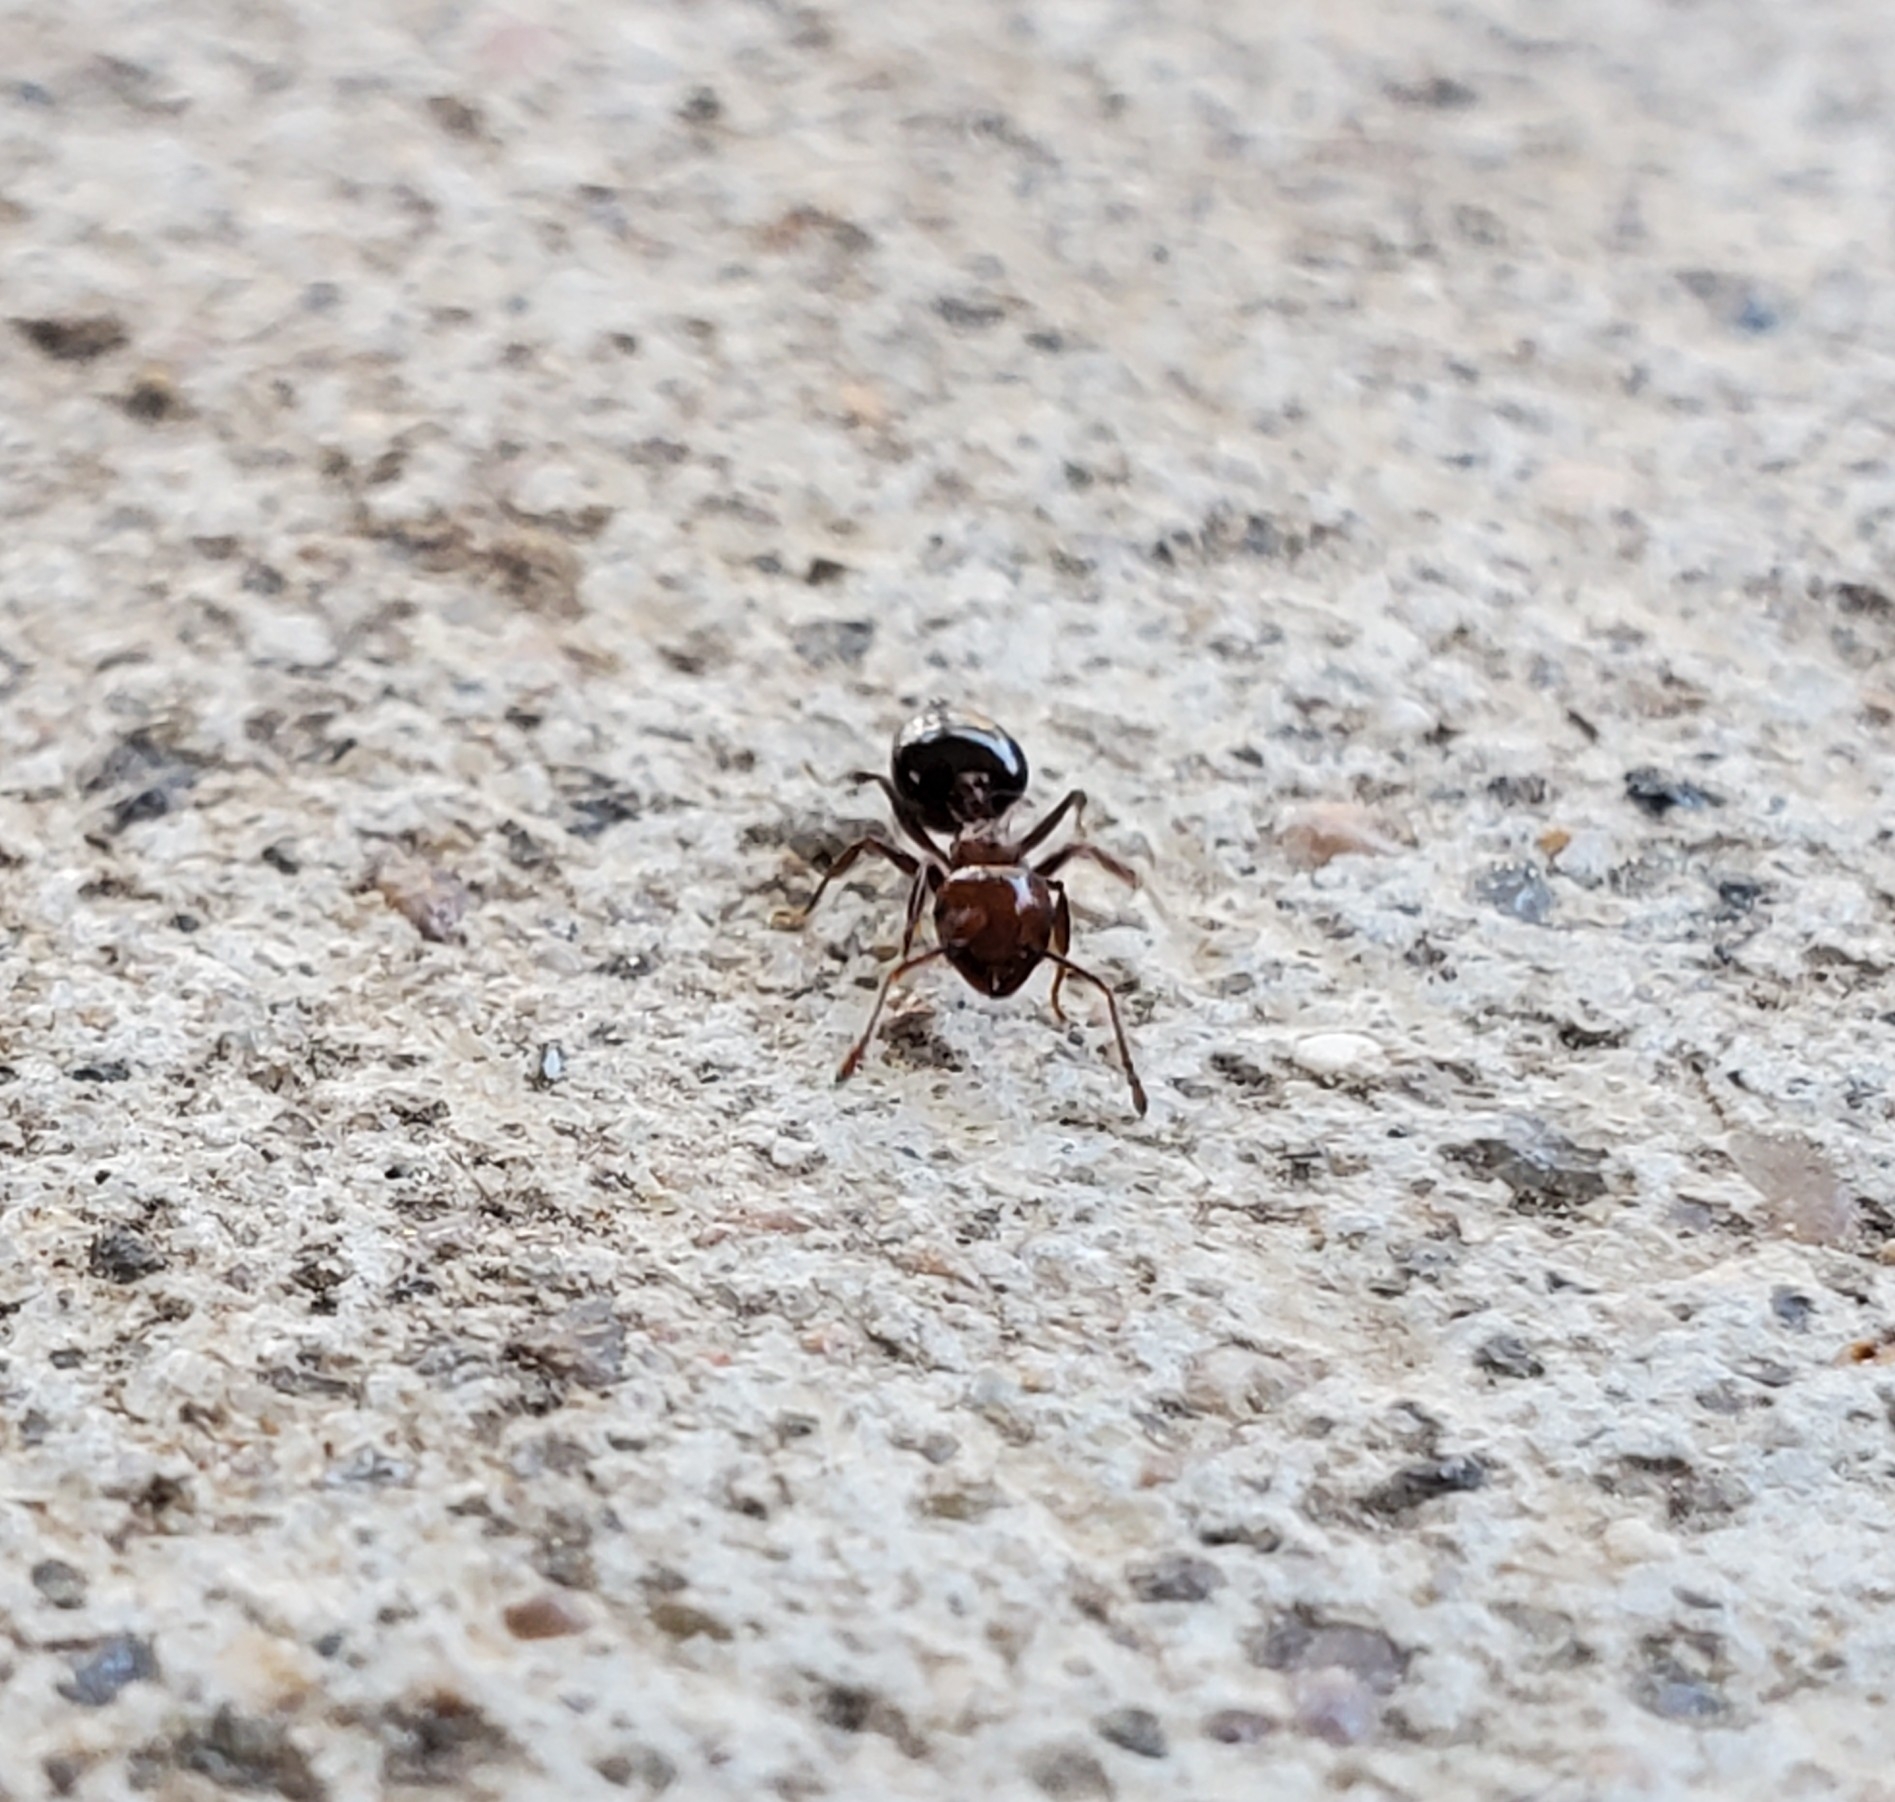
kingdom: Animalia
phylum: Arthropoda
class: Insecta
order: Hymenoptera
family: Formicidae
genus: Crematogaster
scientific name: Crematogaster laeviuscula
